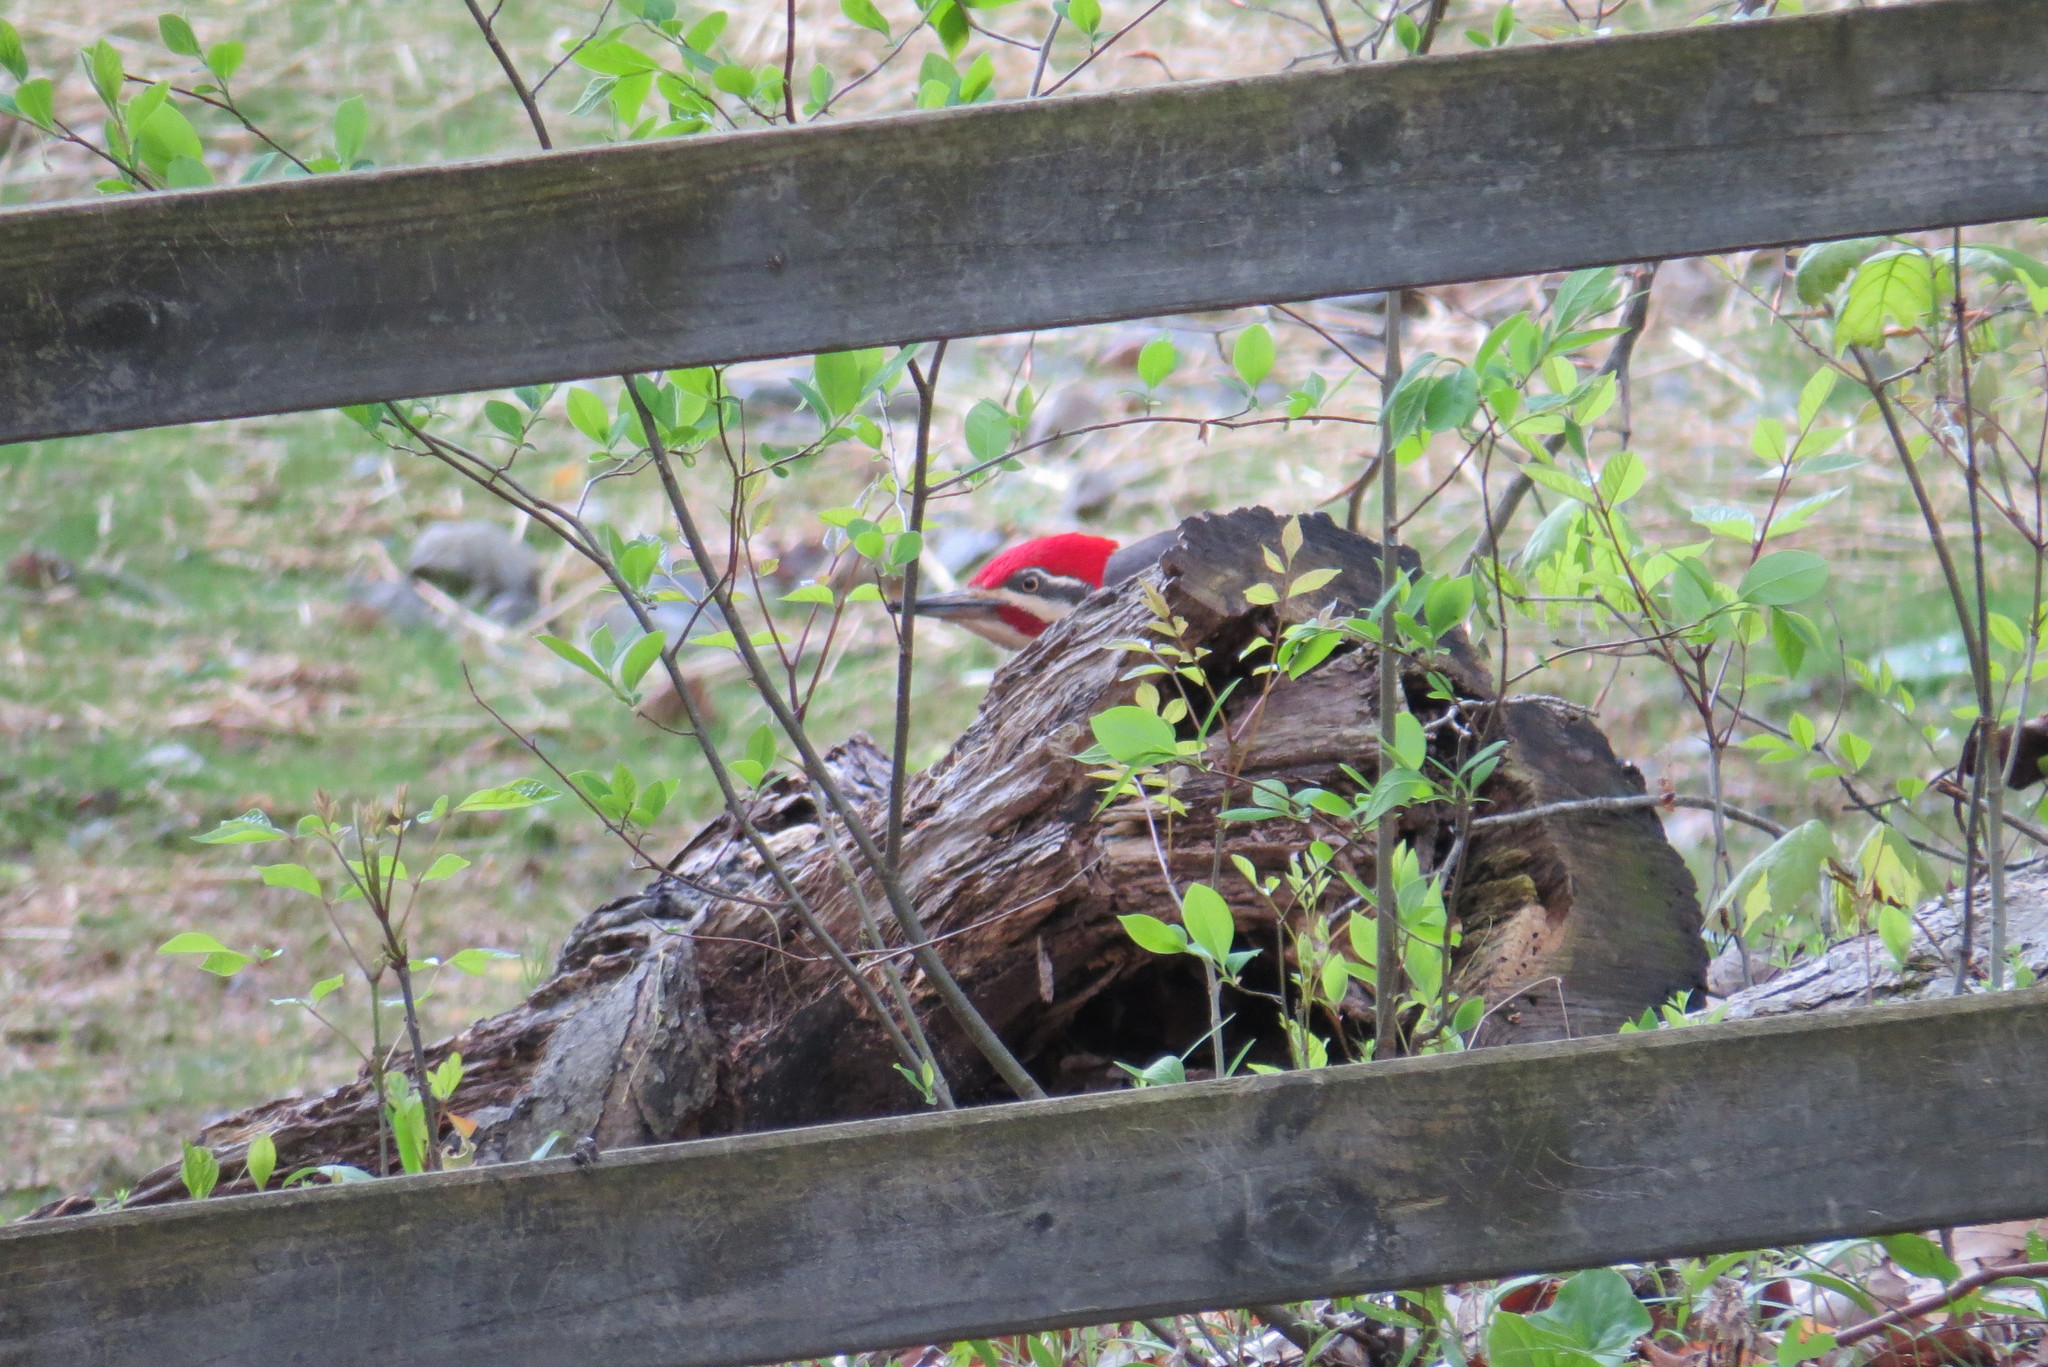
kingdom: Animalia
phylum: Chordata
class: Aves
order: Piciformes
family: Picidae
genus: Dryocopus
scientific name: Dryocopus pileatus
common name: Pileated woodpecker
